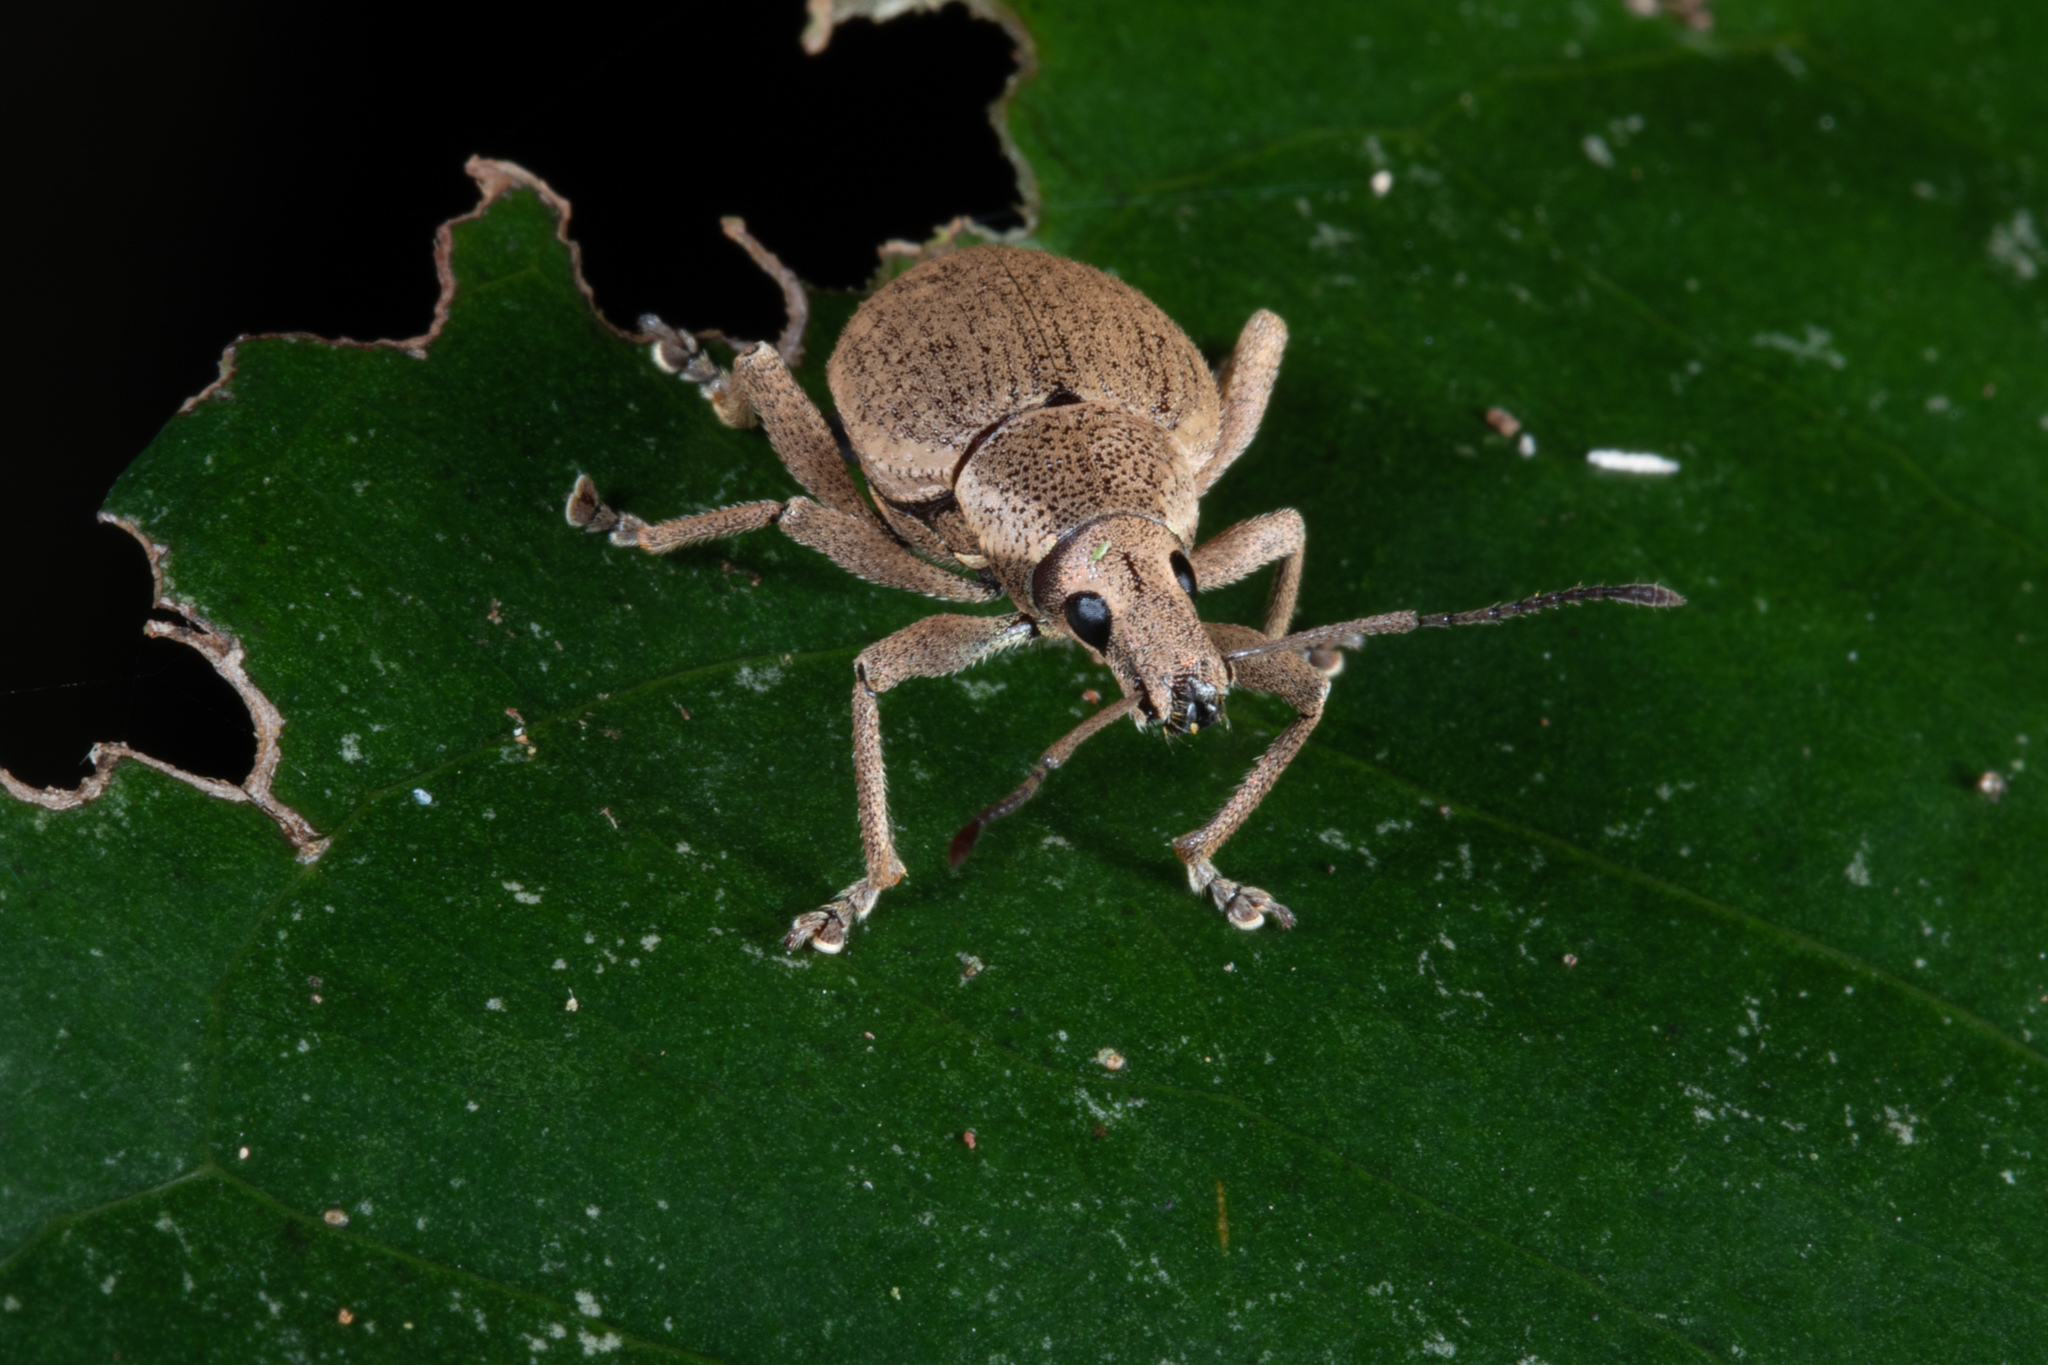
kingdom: Animalia
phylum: Arthropoda
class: Insecta
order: Coleoptera
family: Curculionidae
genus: Elytrurus
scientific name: Elytrurus niuei
